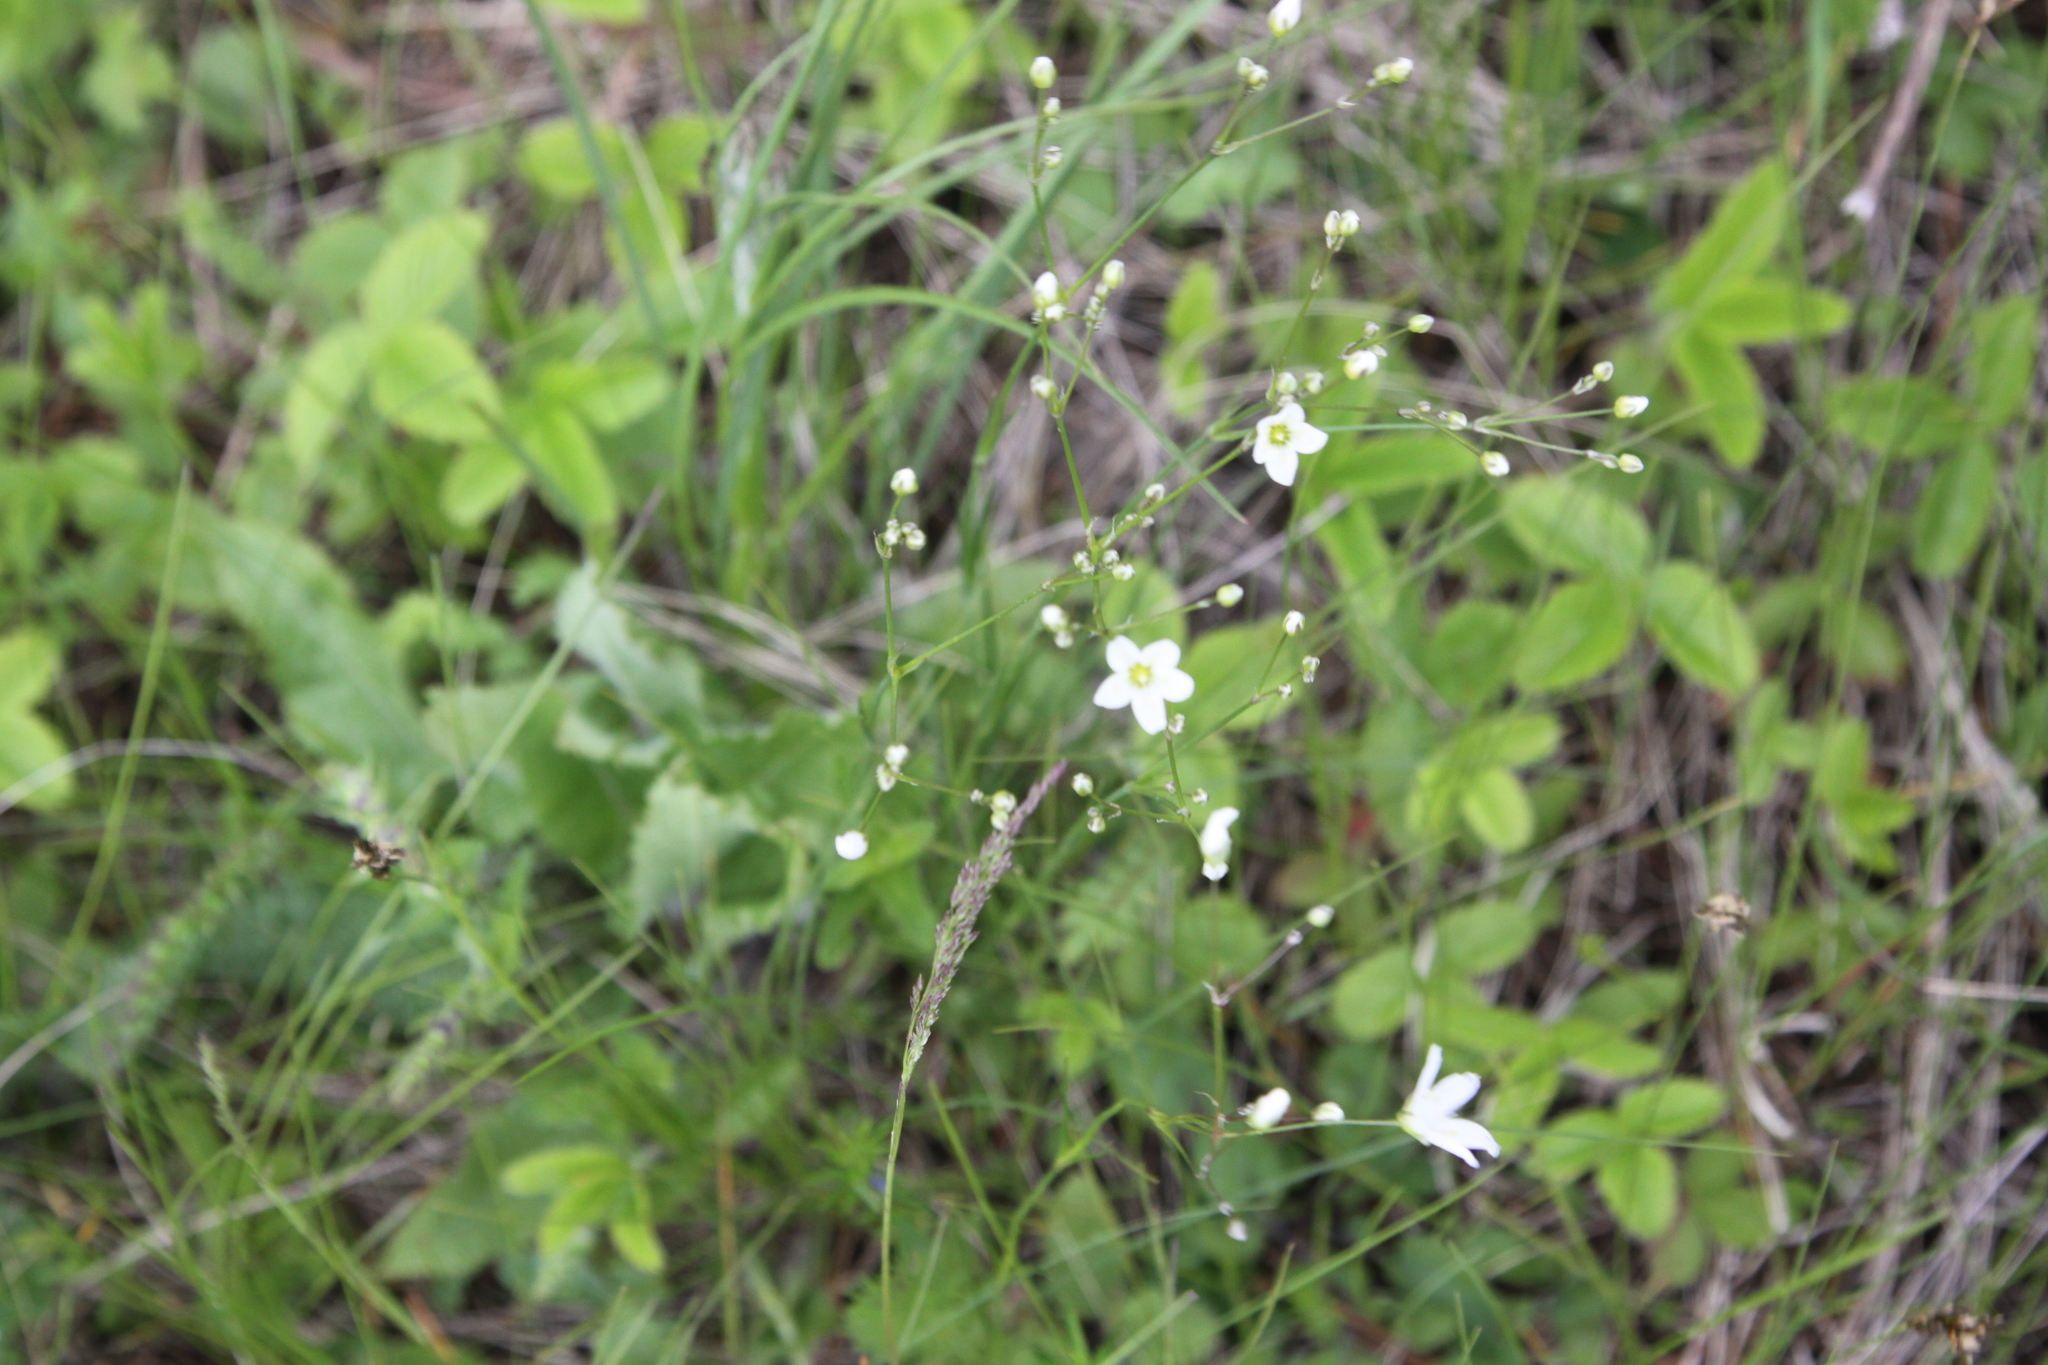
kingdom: Plantae
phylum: Tracheophyta
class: Magnoliopsida
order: Caryophyllales
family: Caryophyllaceae
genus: Eremogone
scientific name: Eremogone saxatilis
